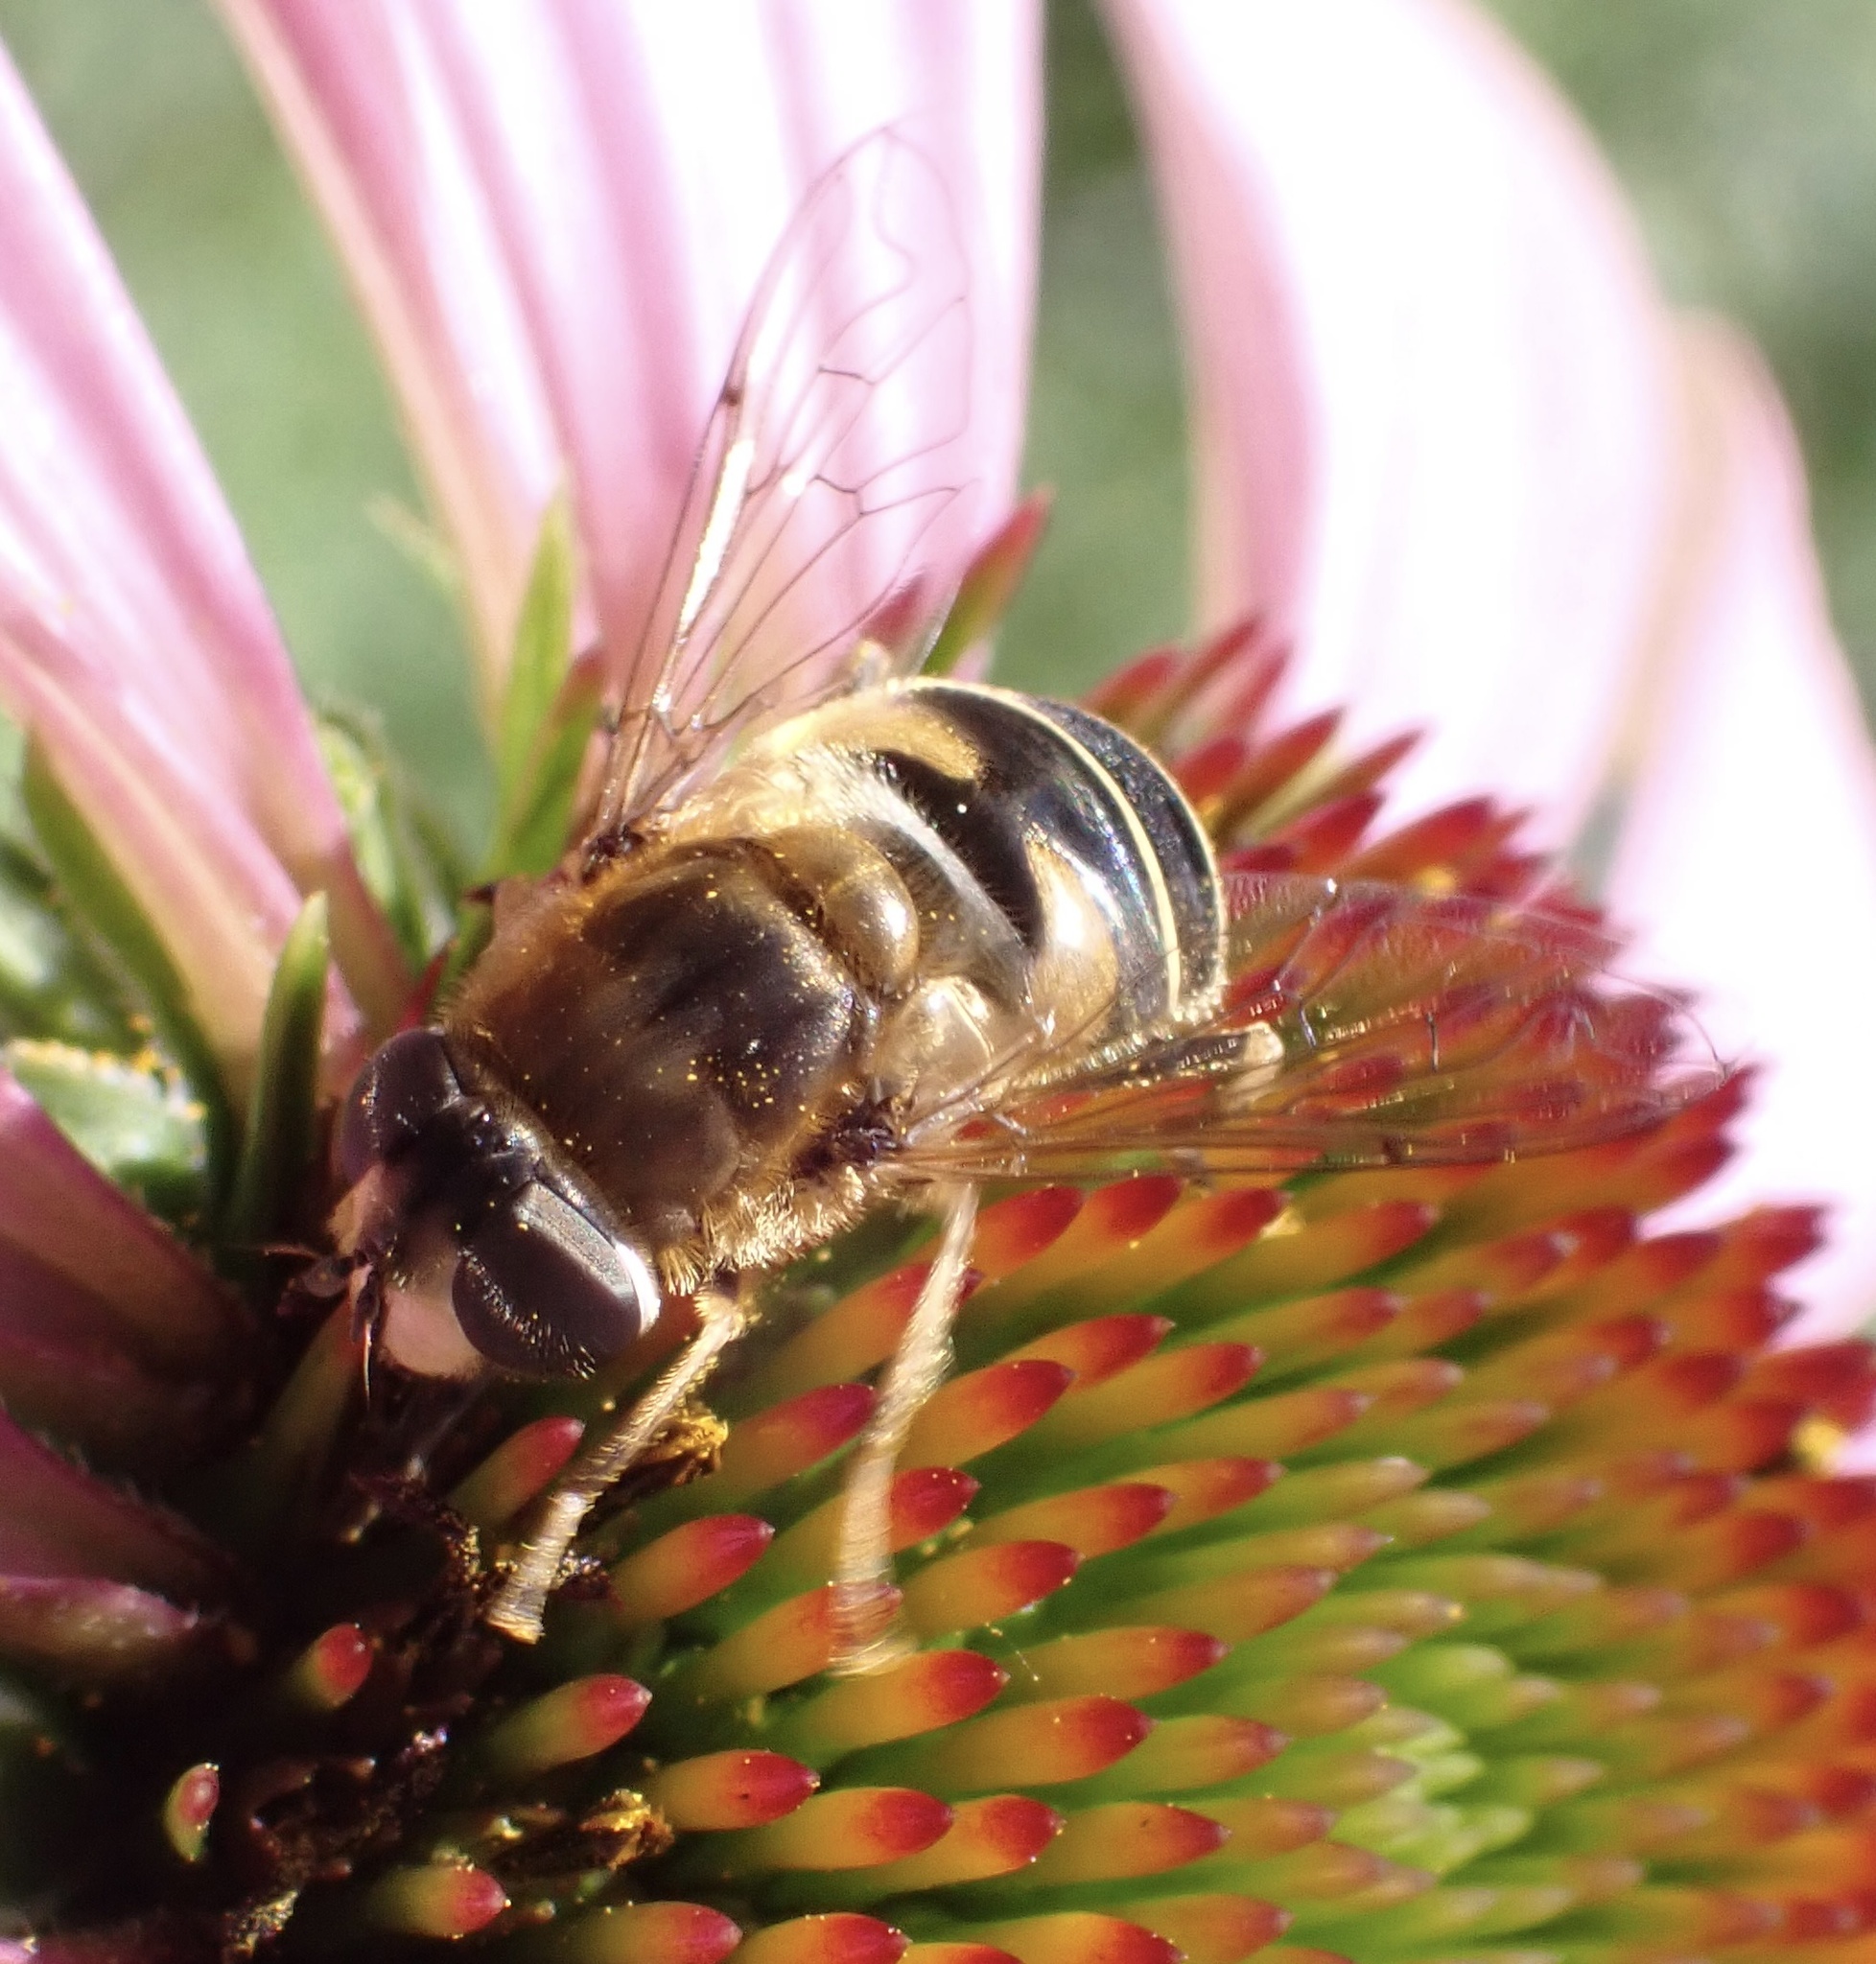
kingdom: Animalia
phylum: Arthropoda
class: Insecta
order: Diptera
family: Syrphidae
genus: Eristalis
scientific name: Eristalis nemorum
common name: Orange-spined drone fly
